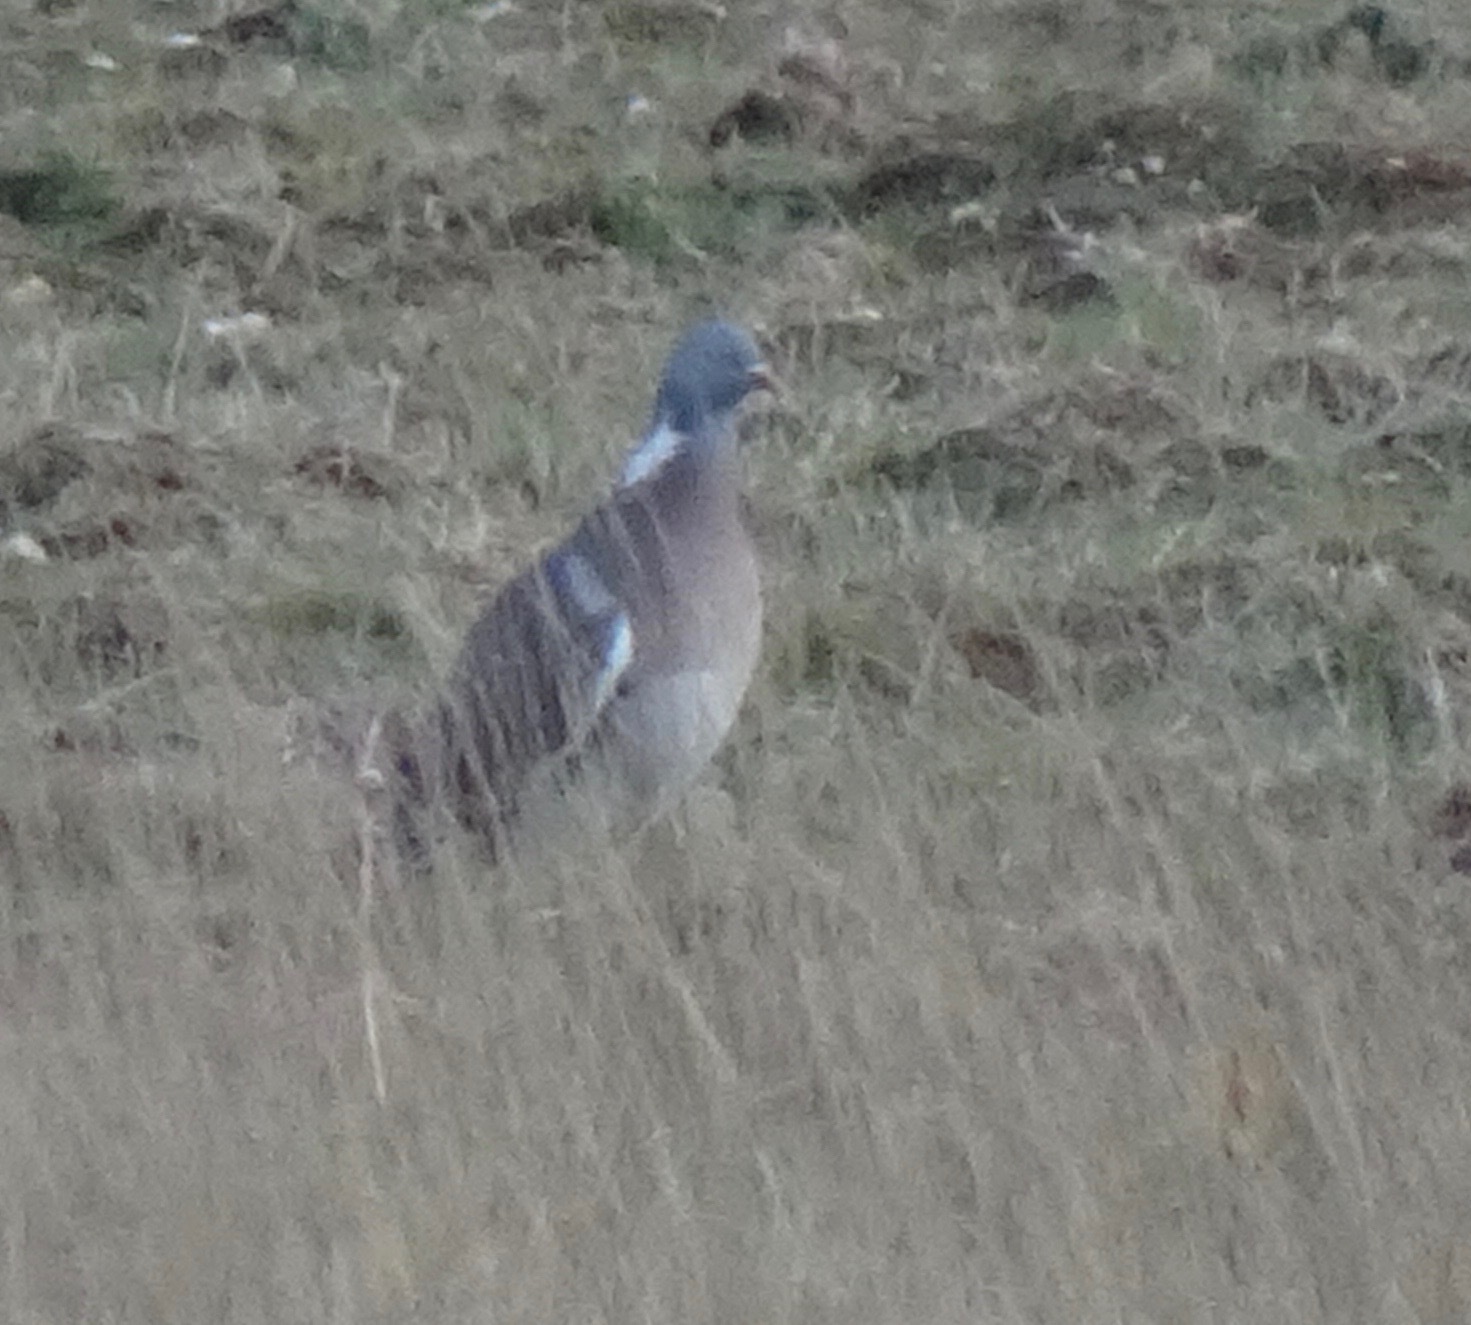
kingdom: Animalia
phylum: Chordata
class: Aves
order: Columbiformes
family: Columbidae
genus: Columba
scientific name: Columba palumbus
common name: Common wood pigeon
